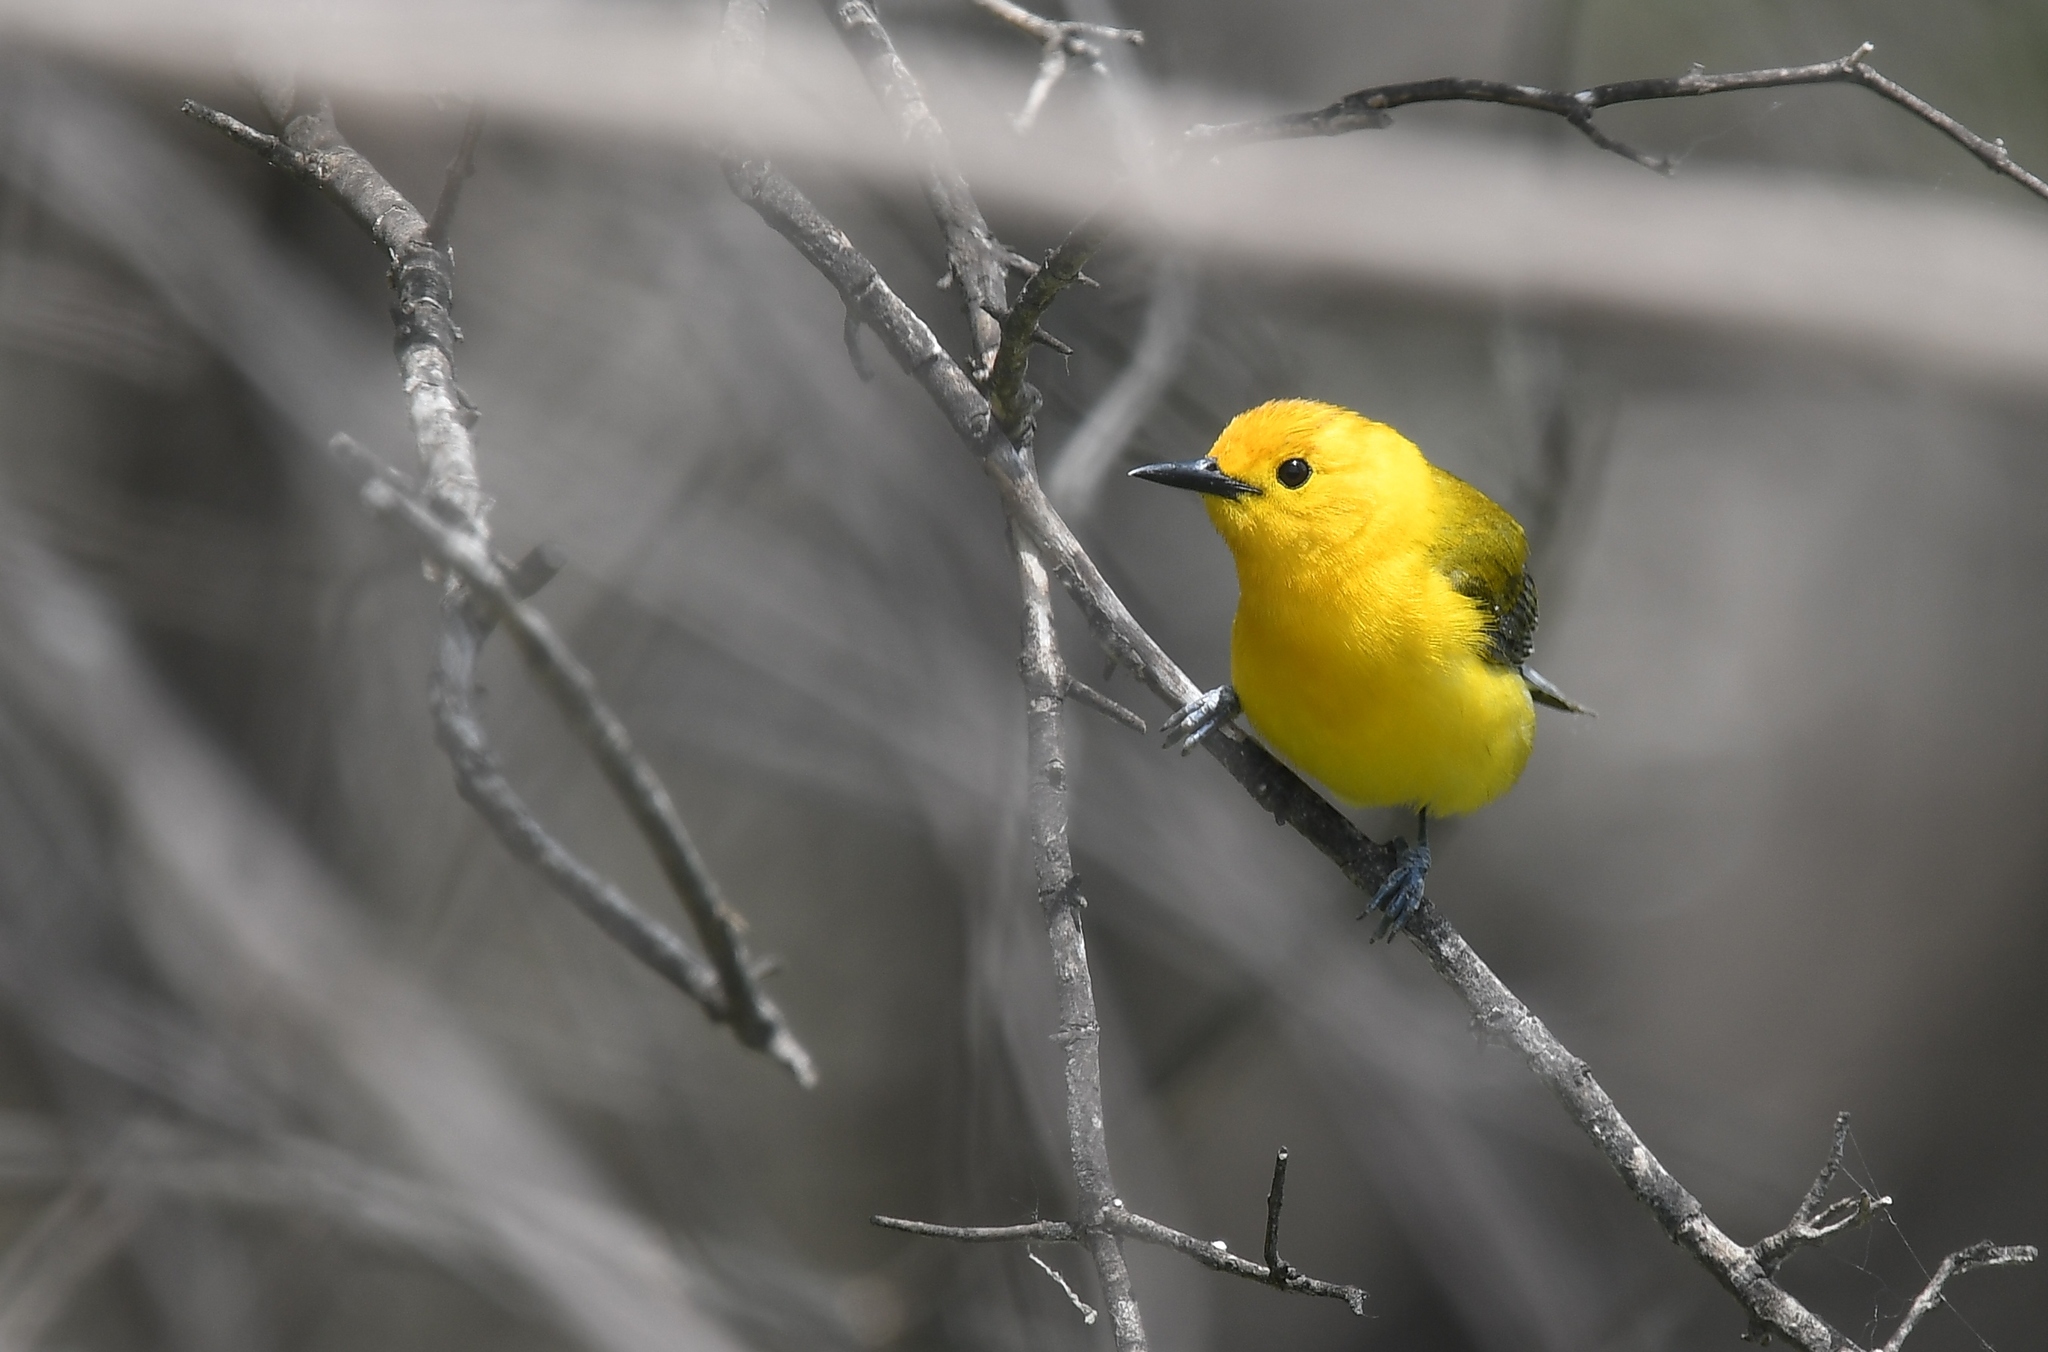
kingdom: Animalia
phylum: Chordata
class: Aves
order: Passeriformes
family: Parulidae
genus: Protonotaria
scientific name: Protonotaria citrea
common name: Prothonotary warbler
